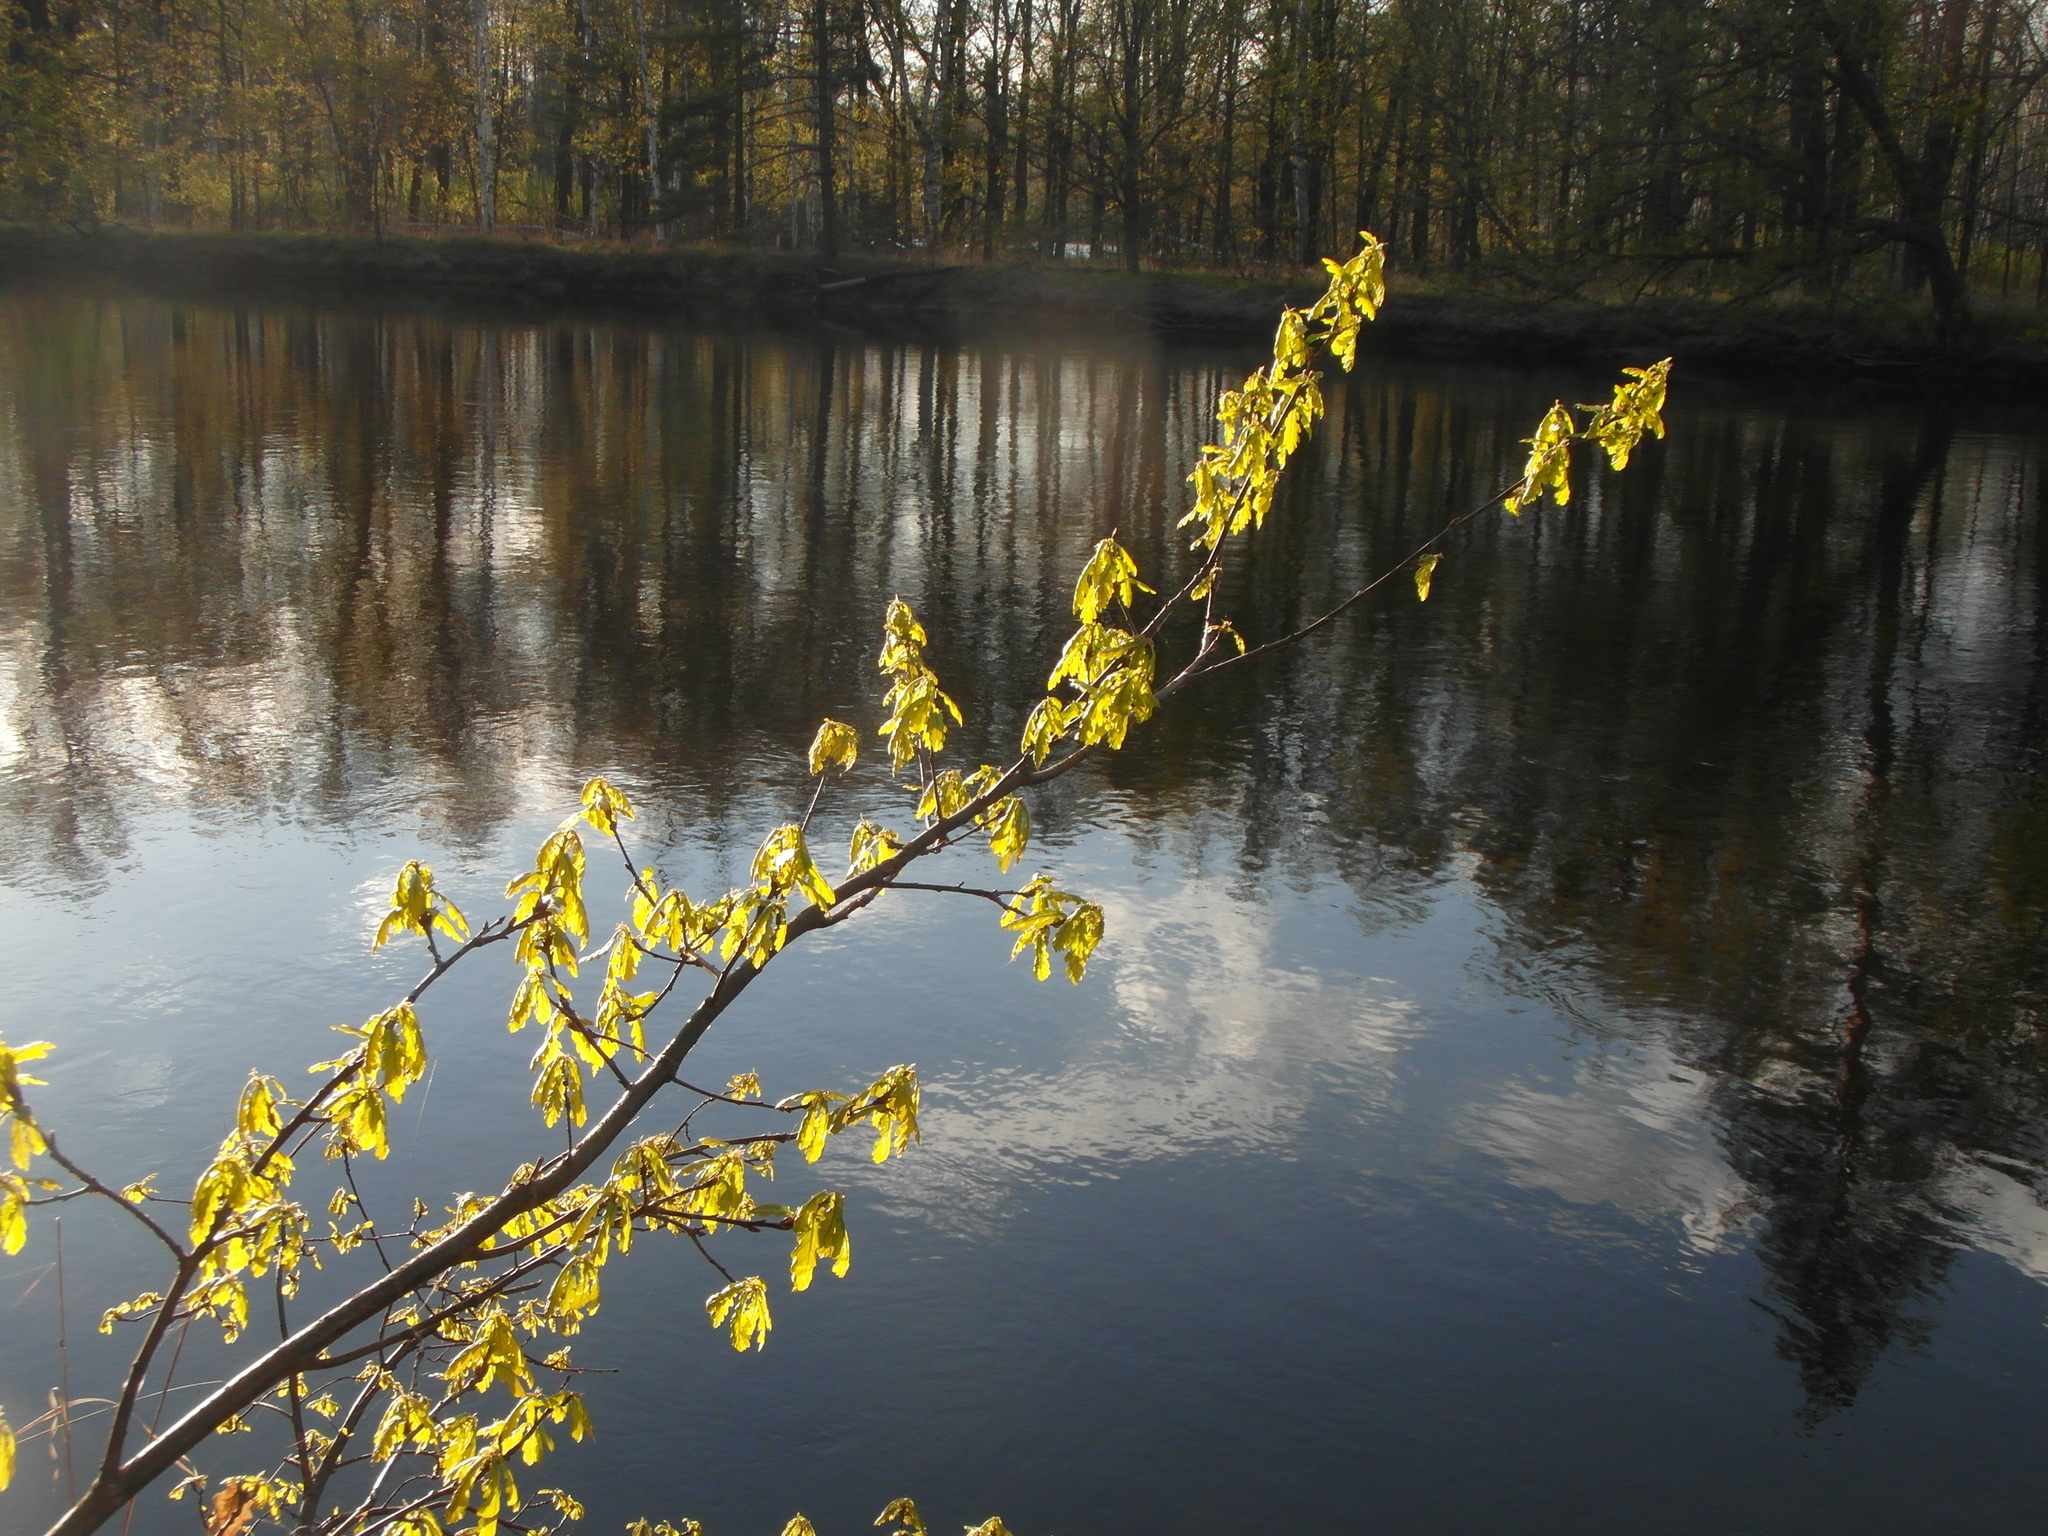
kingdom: Plantae
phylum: Tracheophyta
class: Magnoliopsida
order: Fagales
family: Fagaceae
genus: Quercus
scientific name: Quercus robur
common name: Pedunculate oak
